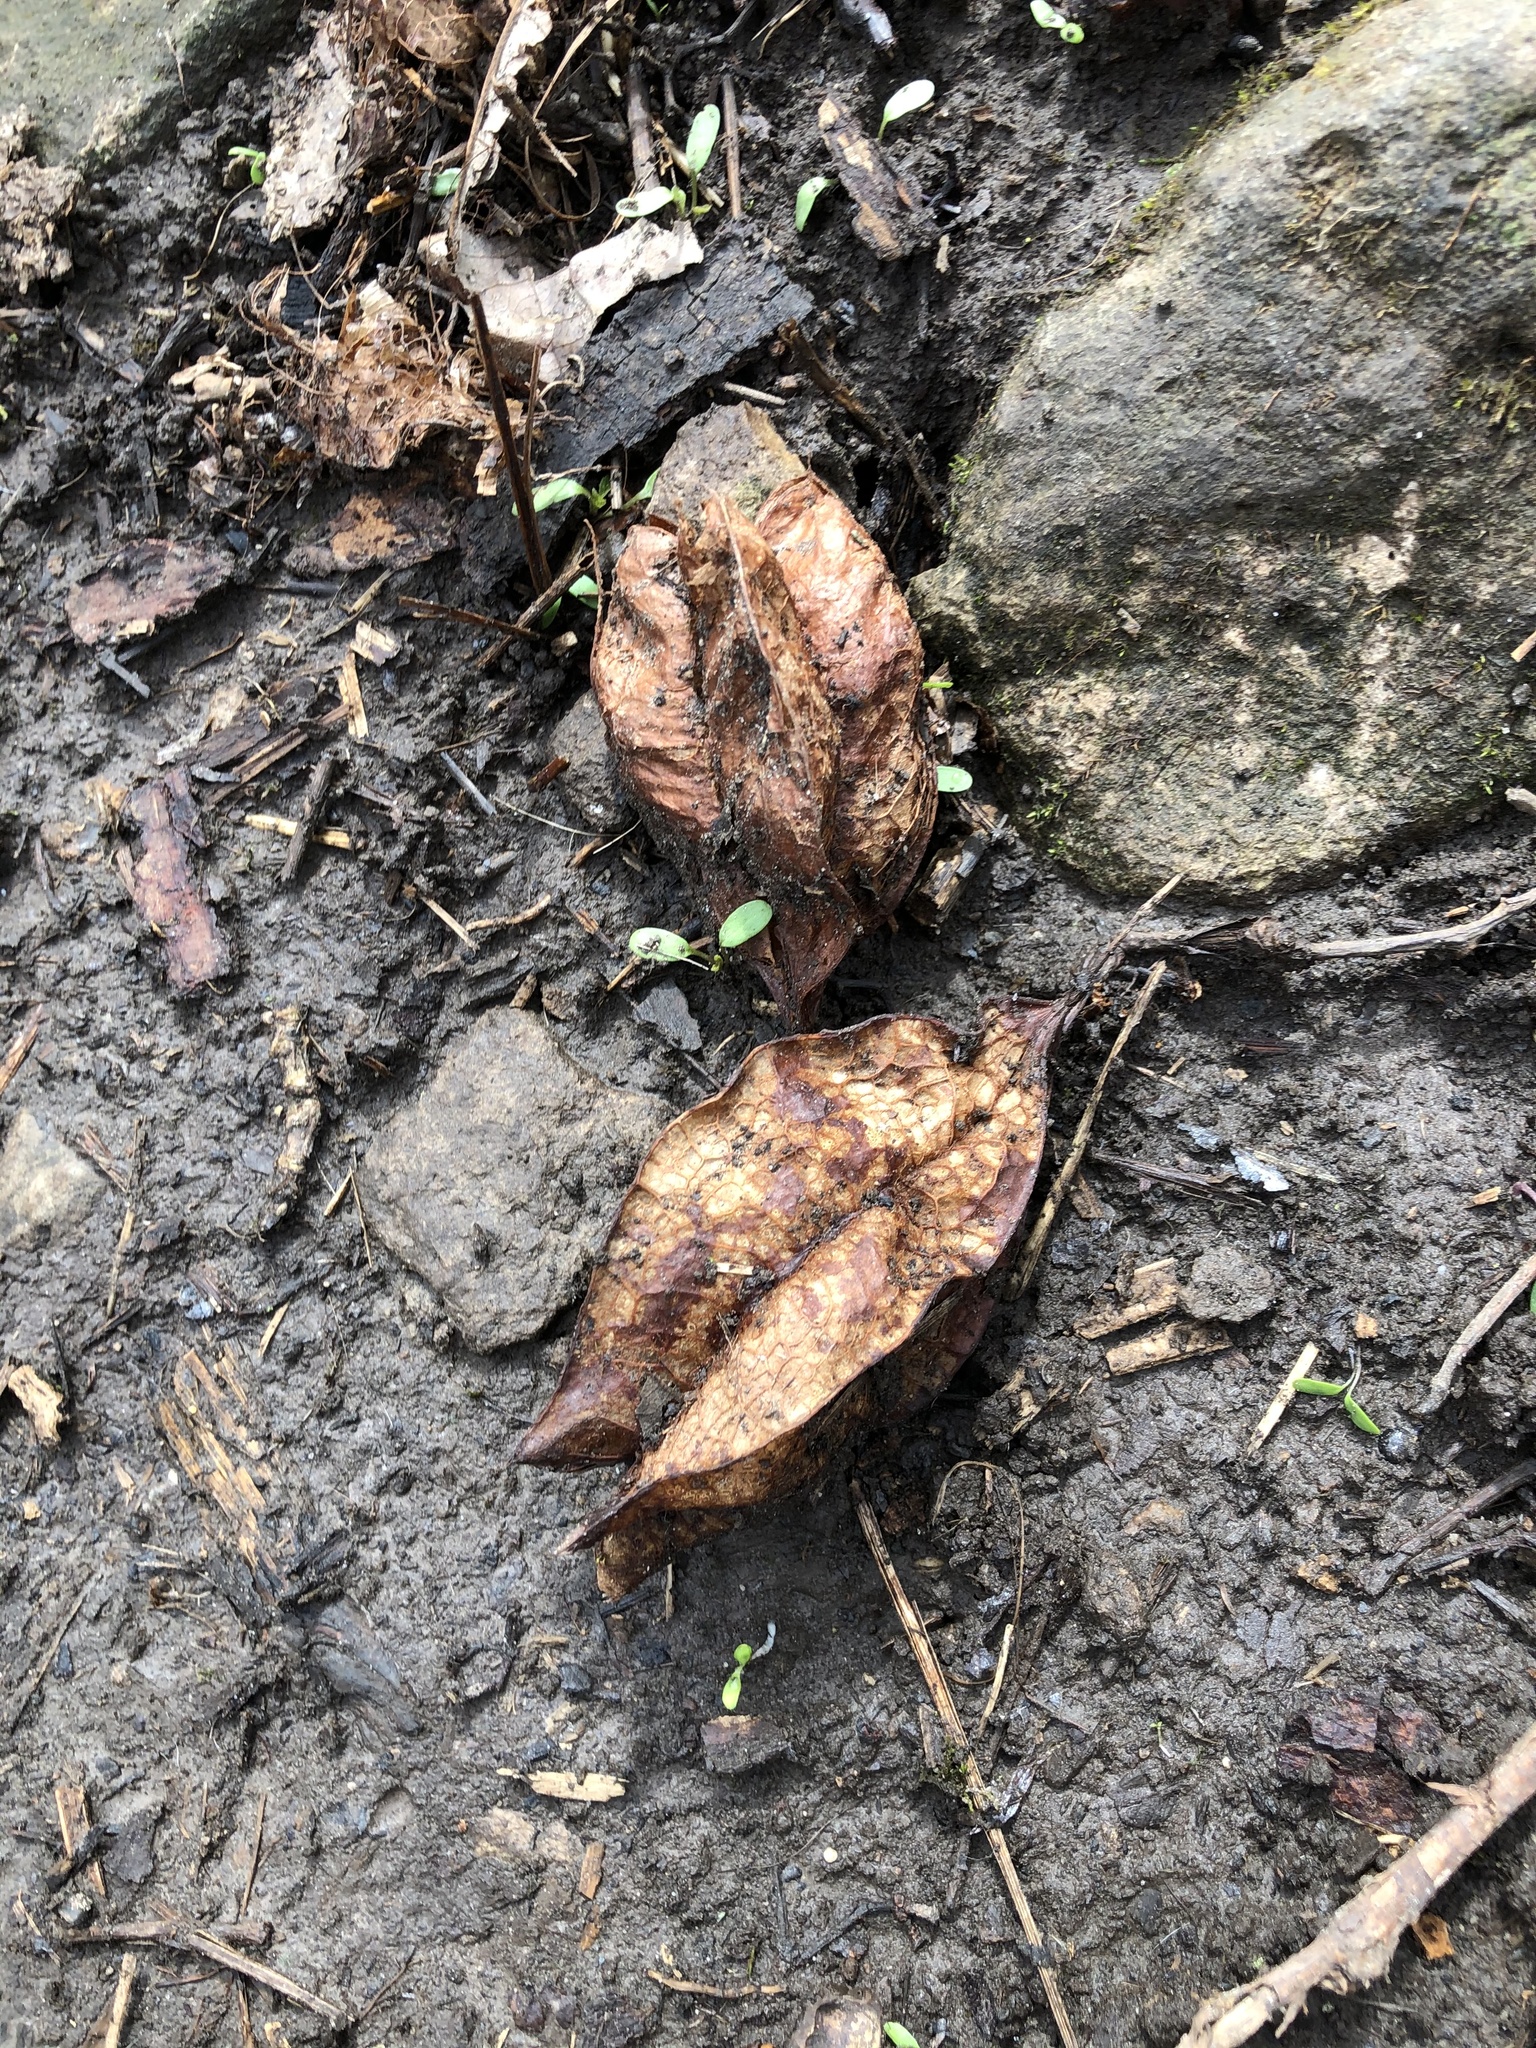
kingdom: Plantae
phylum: Tracheophyta
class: Magnoliopsida
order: Crossosomatales
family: Staphyleaceae
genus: Staphylea
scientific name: Staphylea trifolia
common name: American bladdernut
